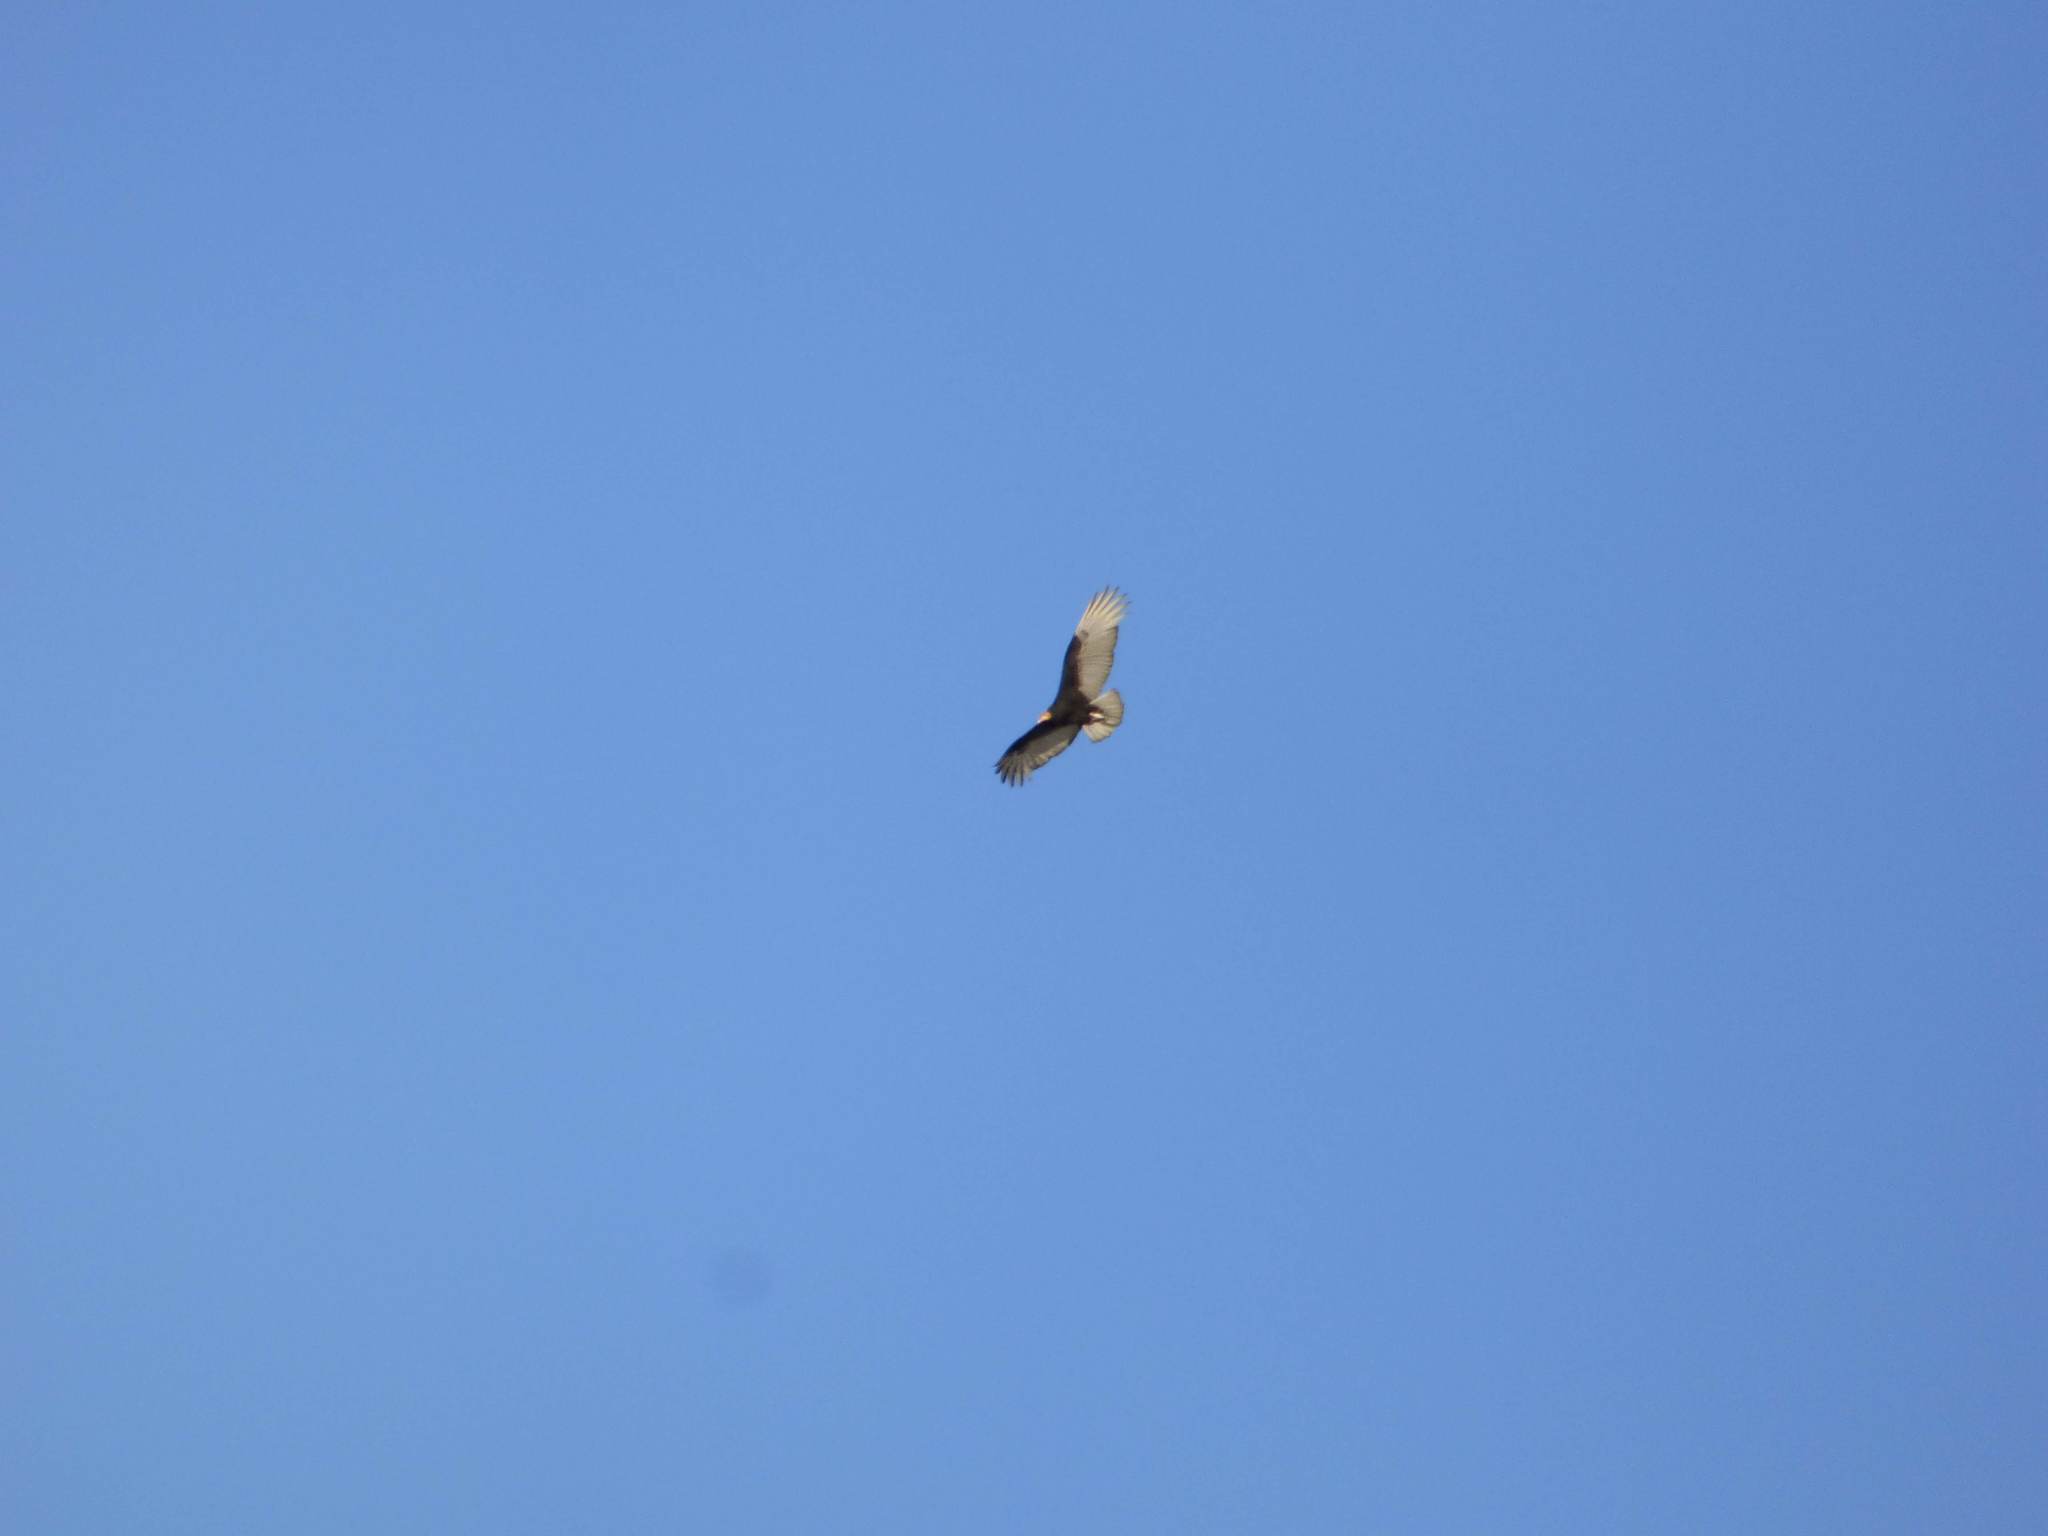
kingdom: Animalia
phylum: Chordata
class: Aves
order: Accipitriformes
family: Cathartidae
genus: Cathartes
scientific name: Cathartes burrovianus
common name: Lesser yellow-headed vulture
